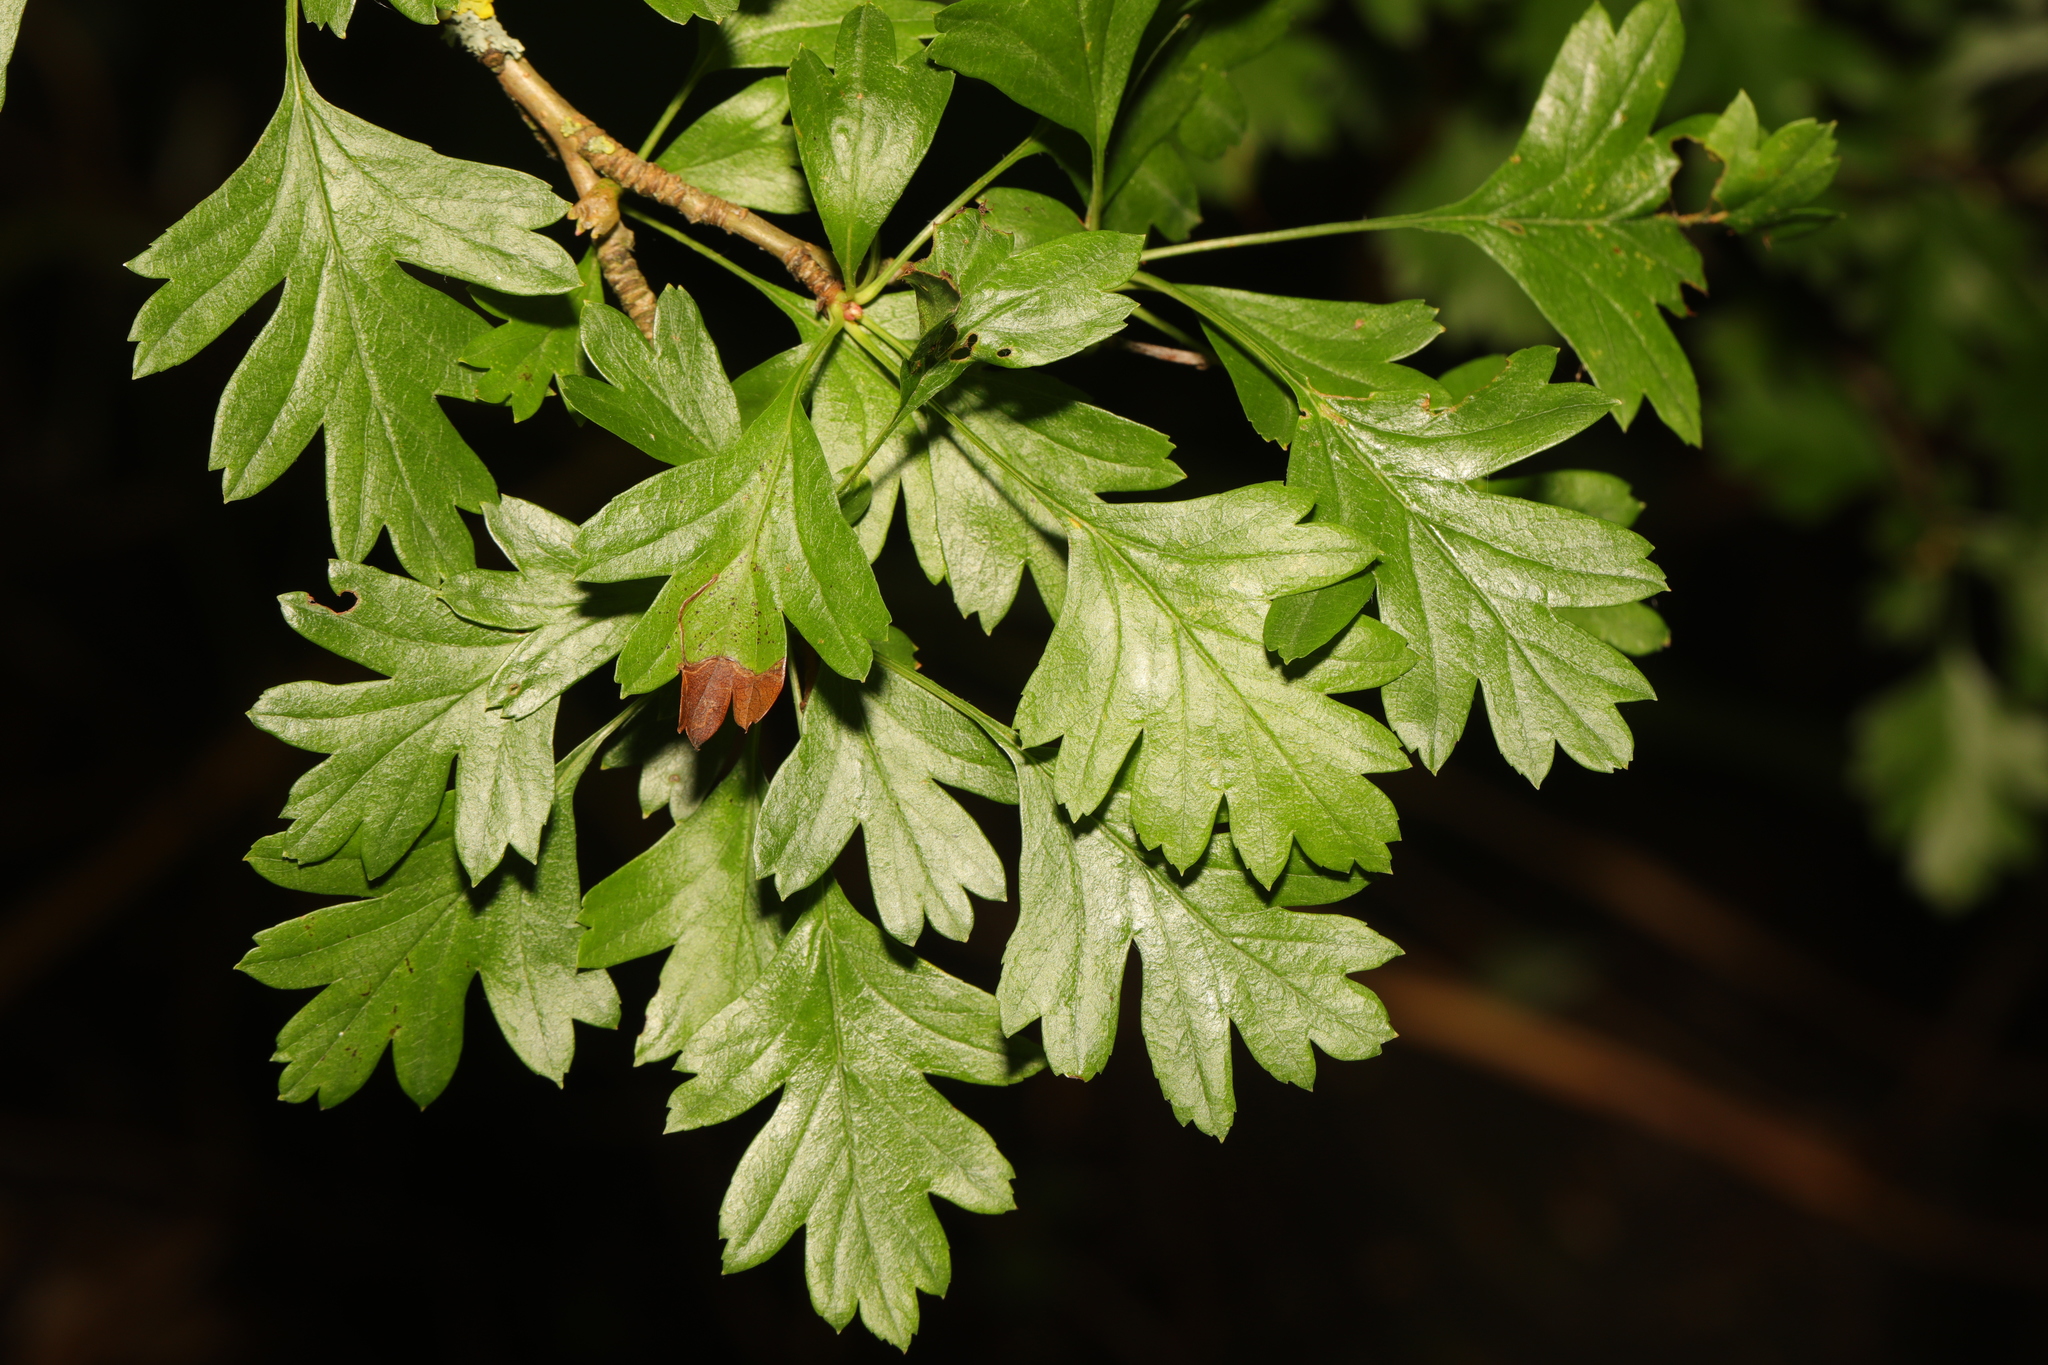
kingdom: Plantae
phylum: Tracheophyta
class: Magnoliopsida
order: Rosales
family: Rosaceae
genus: Crataegus
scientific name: Crataegus monogyna
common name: Hawthorn
